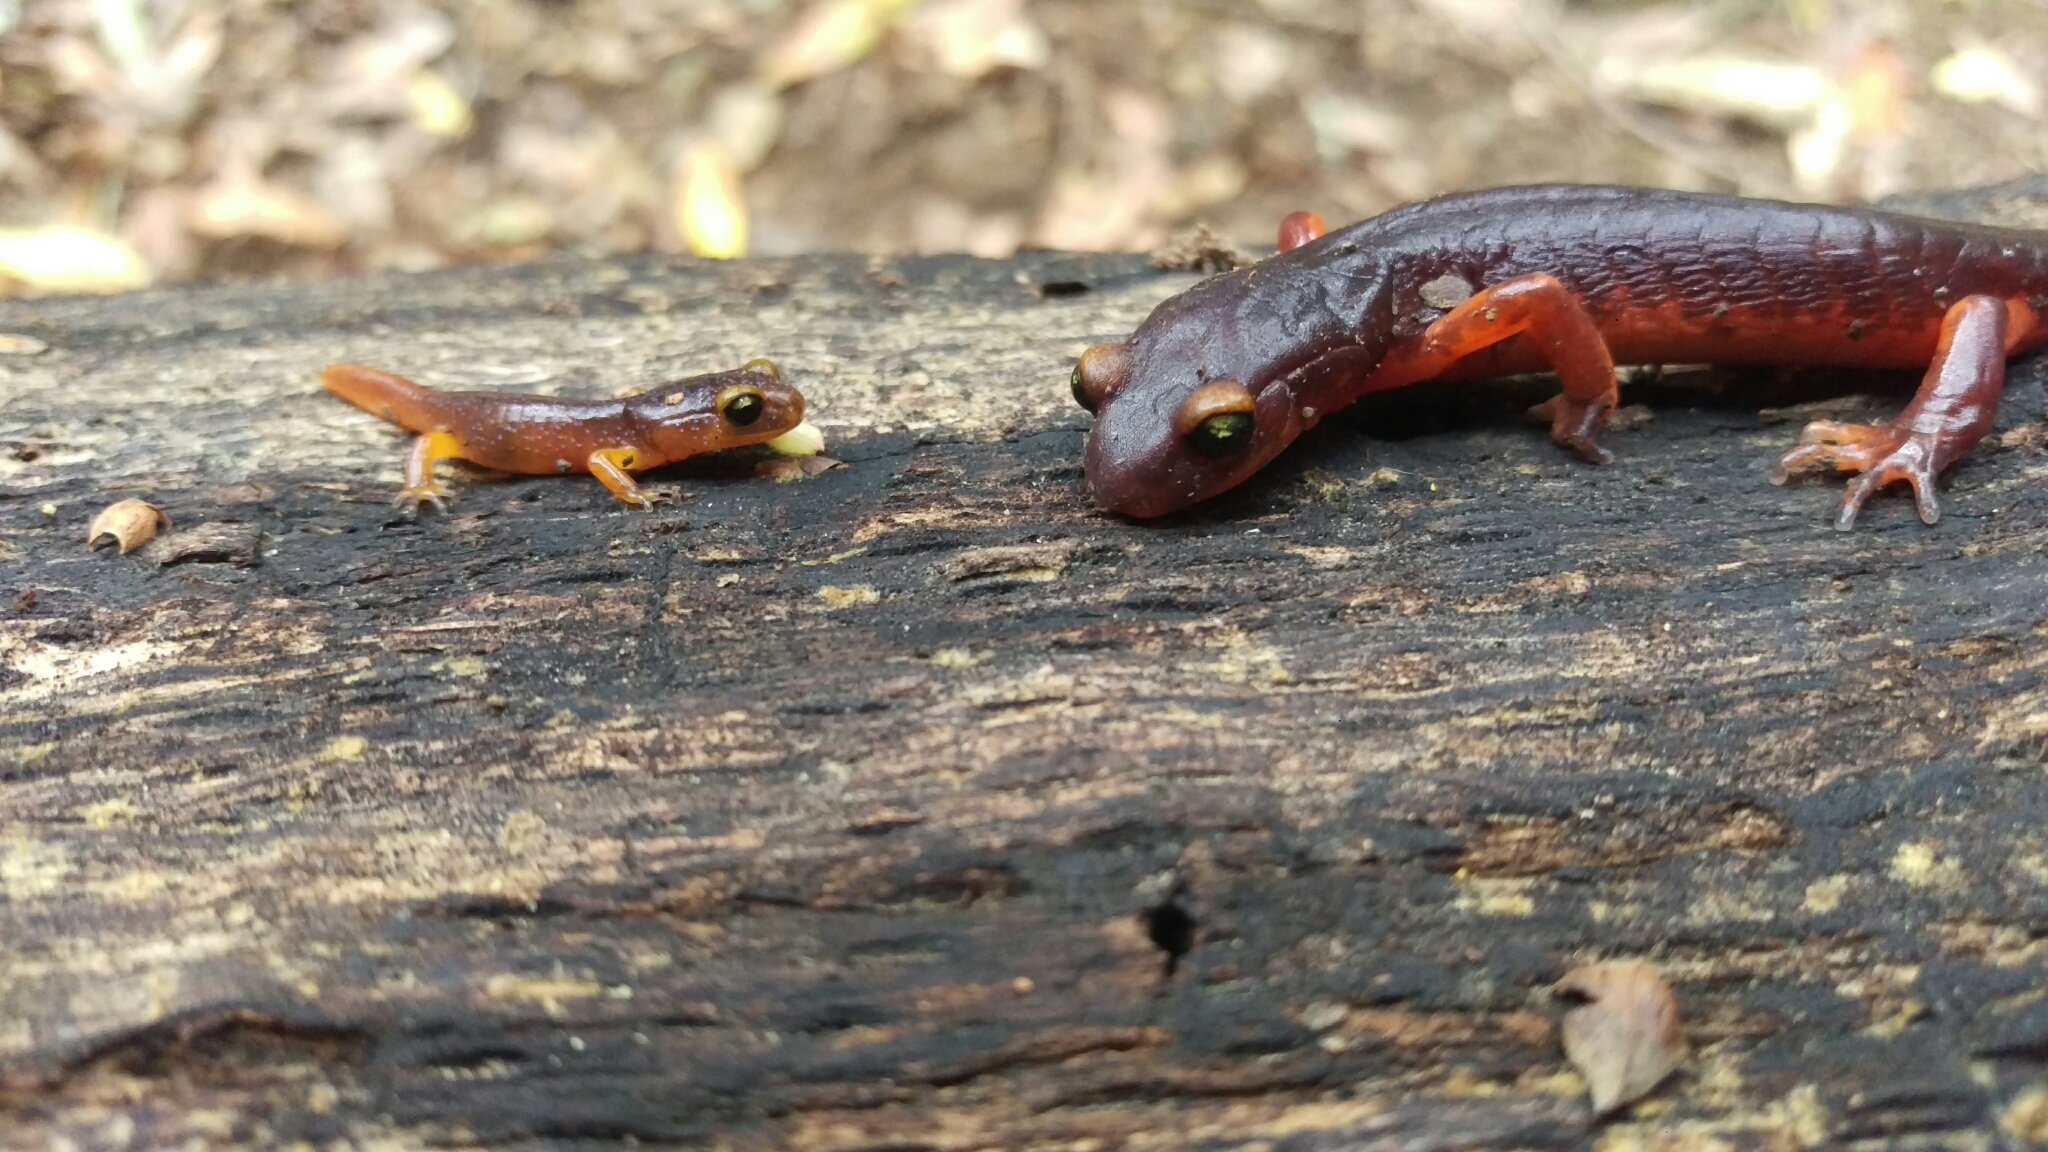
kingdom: Animalia
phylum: Chordata
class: Amphibia
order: Caudata
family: Plethodontidae
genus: Ensatina
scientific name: Ensatina eschscholtzii
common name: Ensatina
